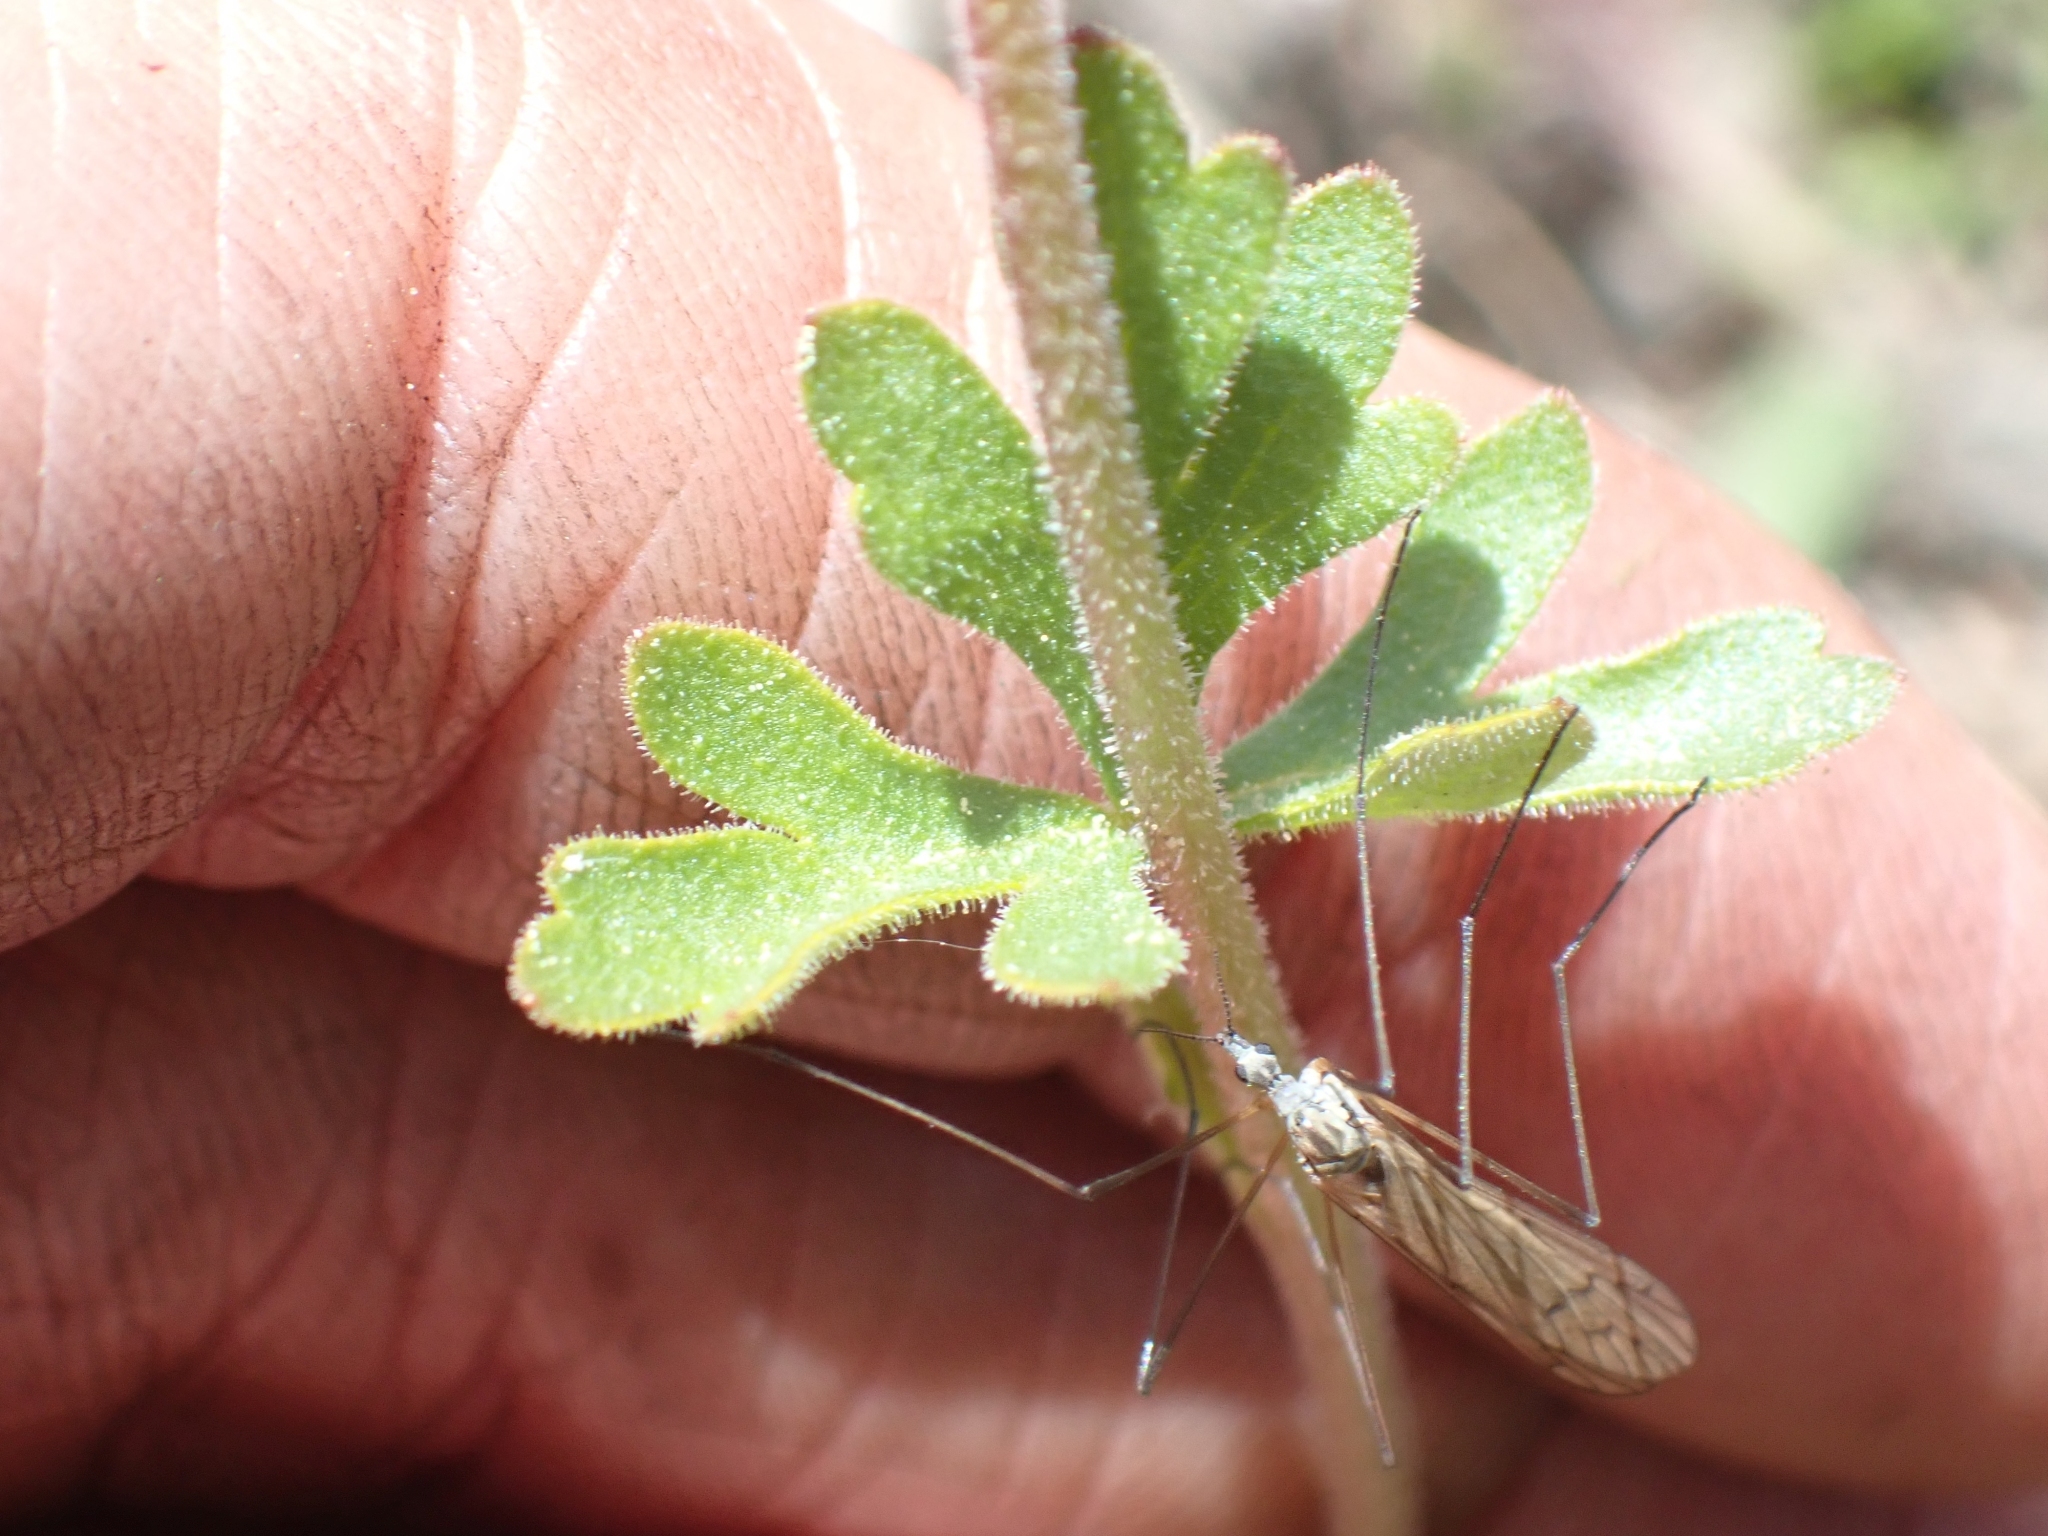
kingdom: Plantae
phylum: Tracheophyta
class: Magnoliopsida
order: Saxifragales
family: Saxifragaceae
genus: Lithophragma
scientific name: Lithophragma parviflorum
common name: Small-flowered fringe-cup
